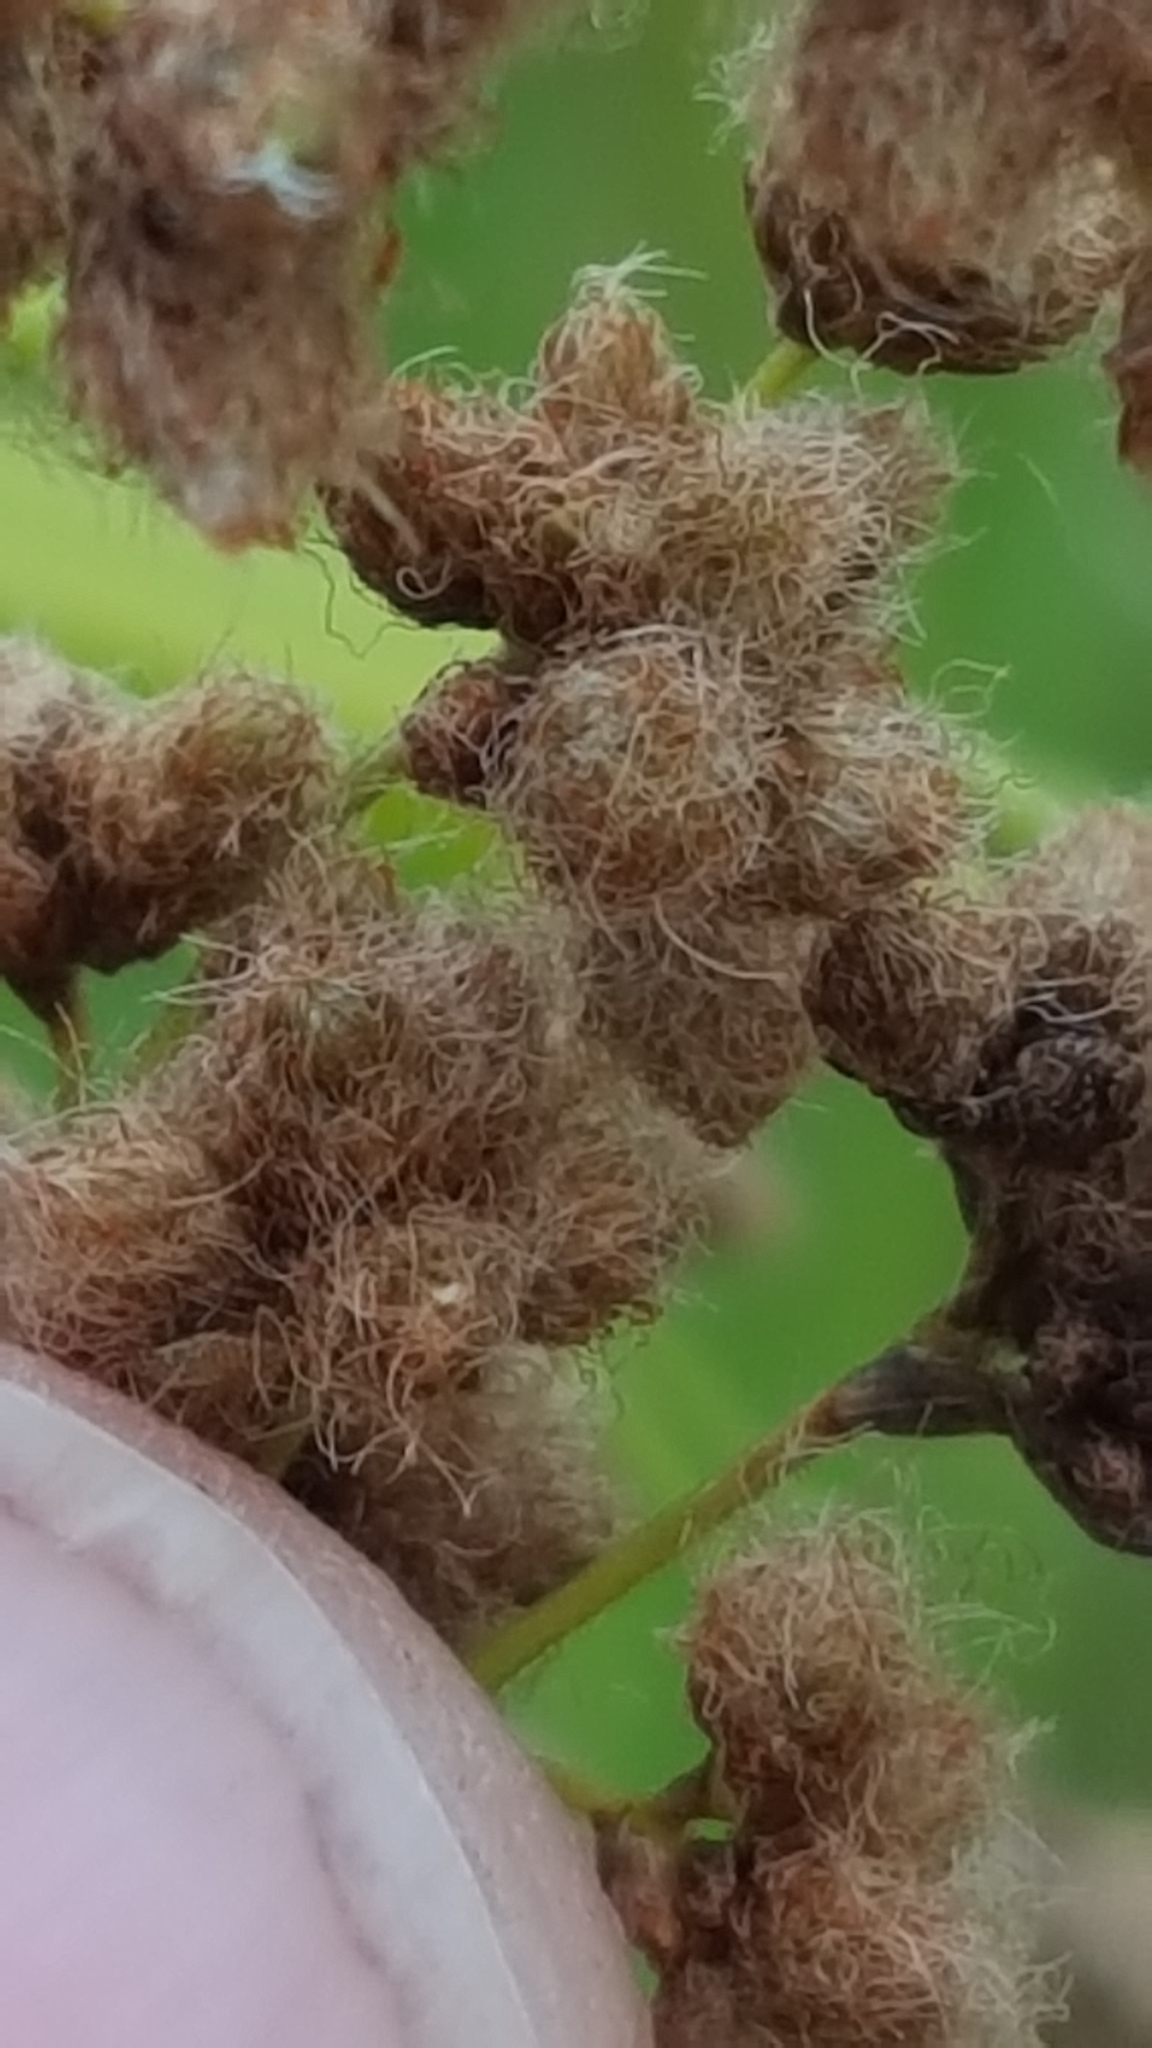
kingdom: Plantae
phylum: Tracheophyta
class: Liliopsida
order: Poales
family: Cyperaceae
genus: Scirpus
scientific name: Scirpus cyperinus
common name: Black-sheathed bulrush
